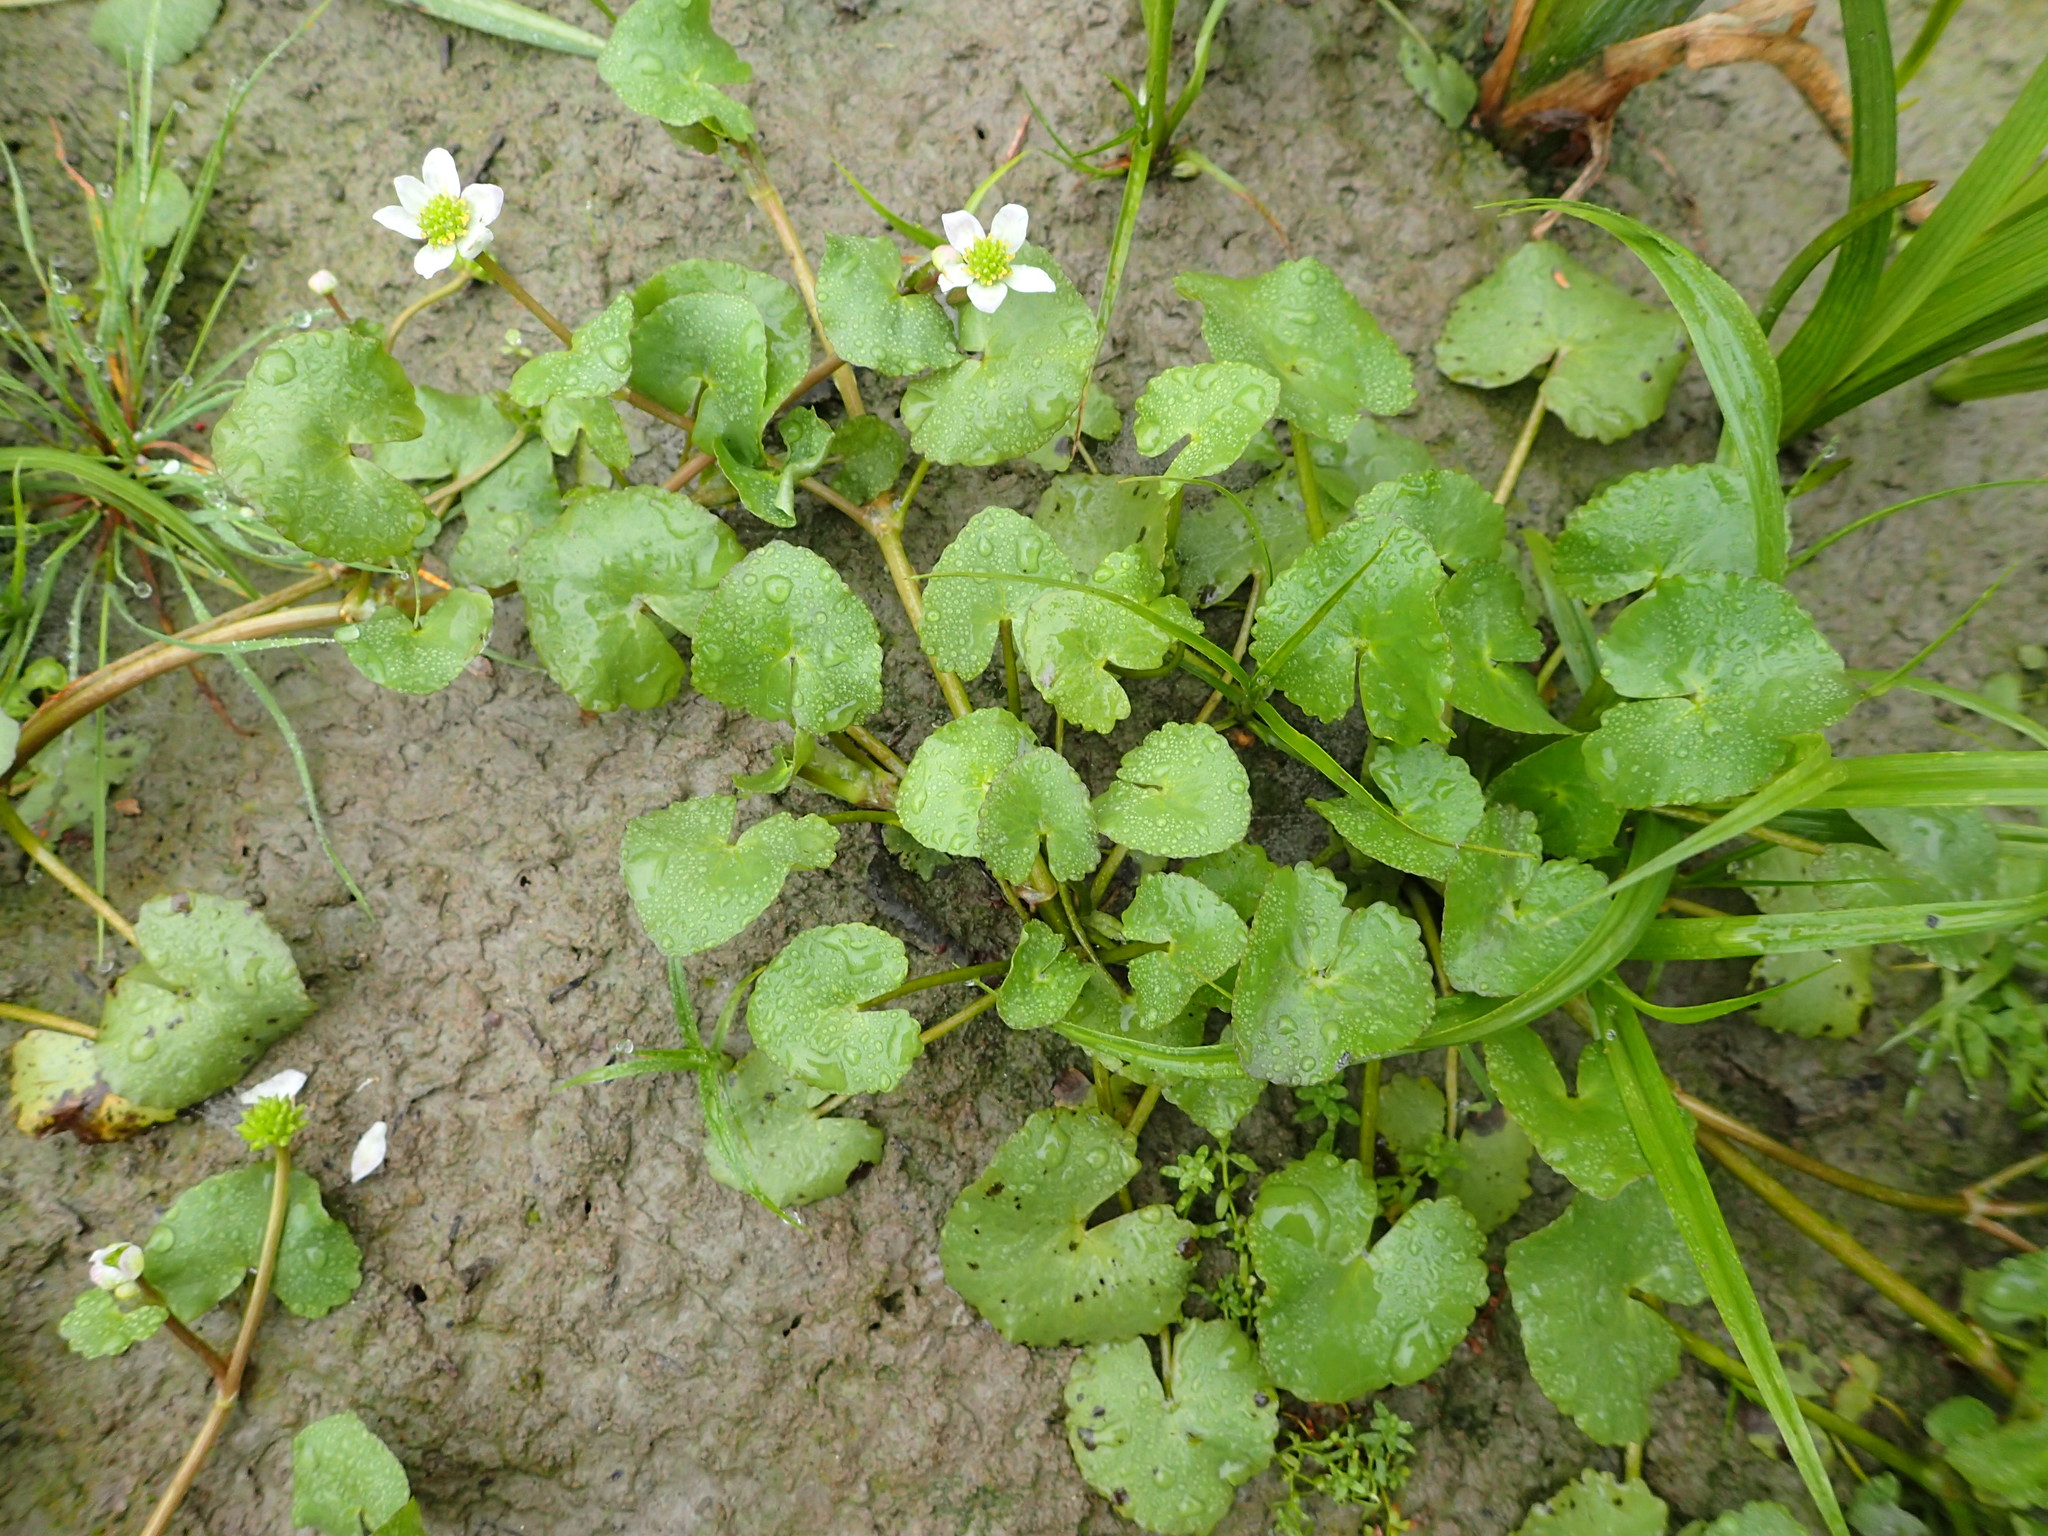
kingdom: Plantae
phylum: Tracheophyta
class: Magnoliopsida
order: Ranunculales
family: Ranunculaceae
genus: Caltha
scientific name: Caltha natans
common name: Floating marsh marigold
